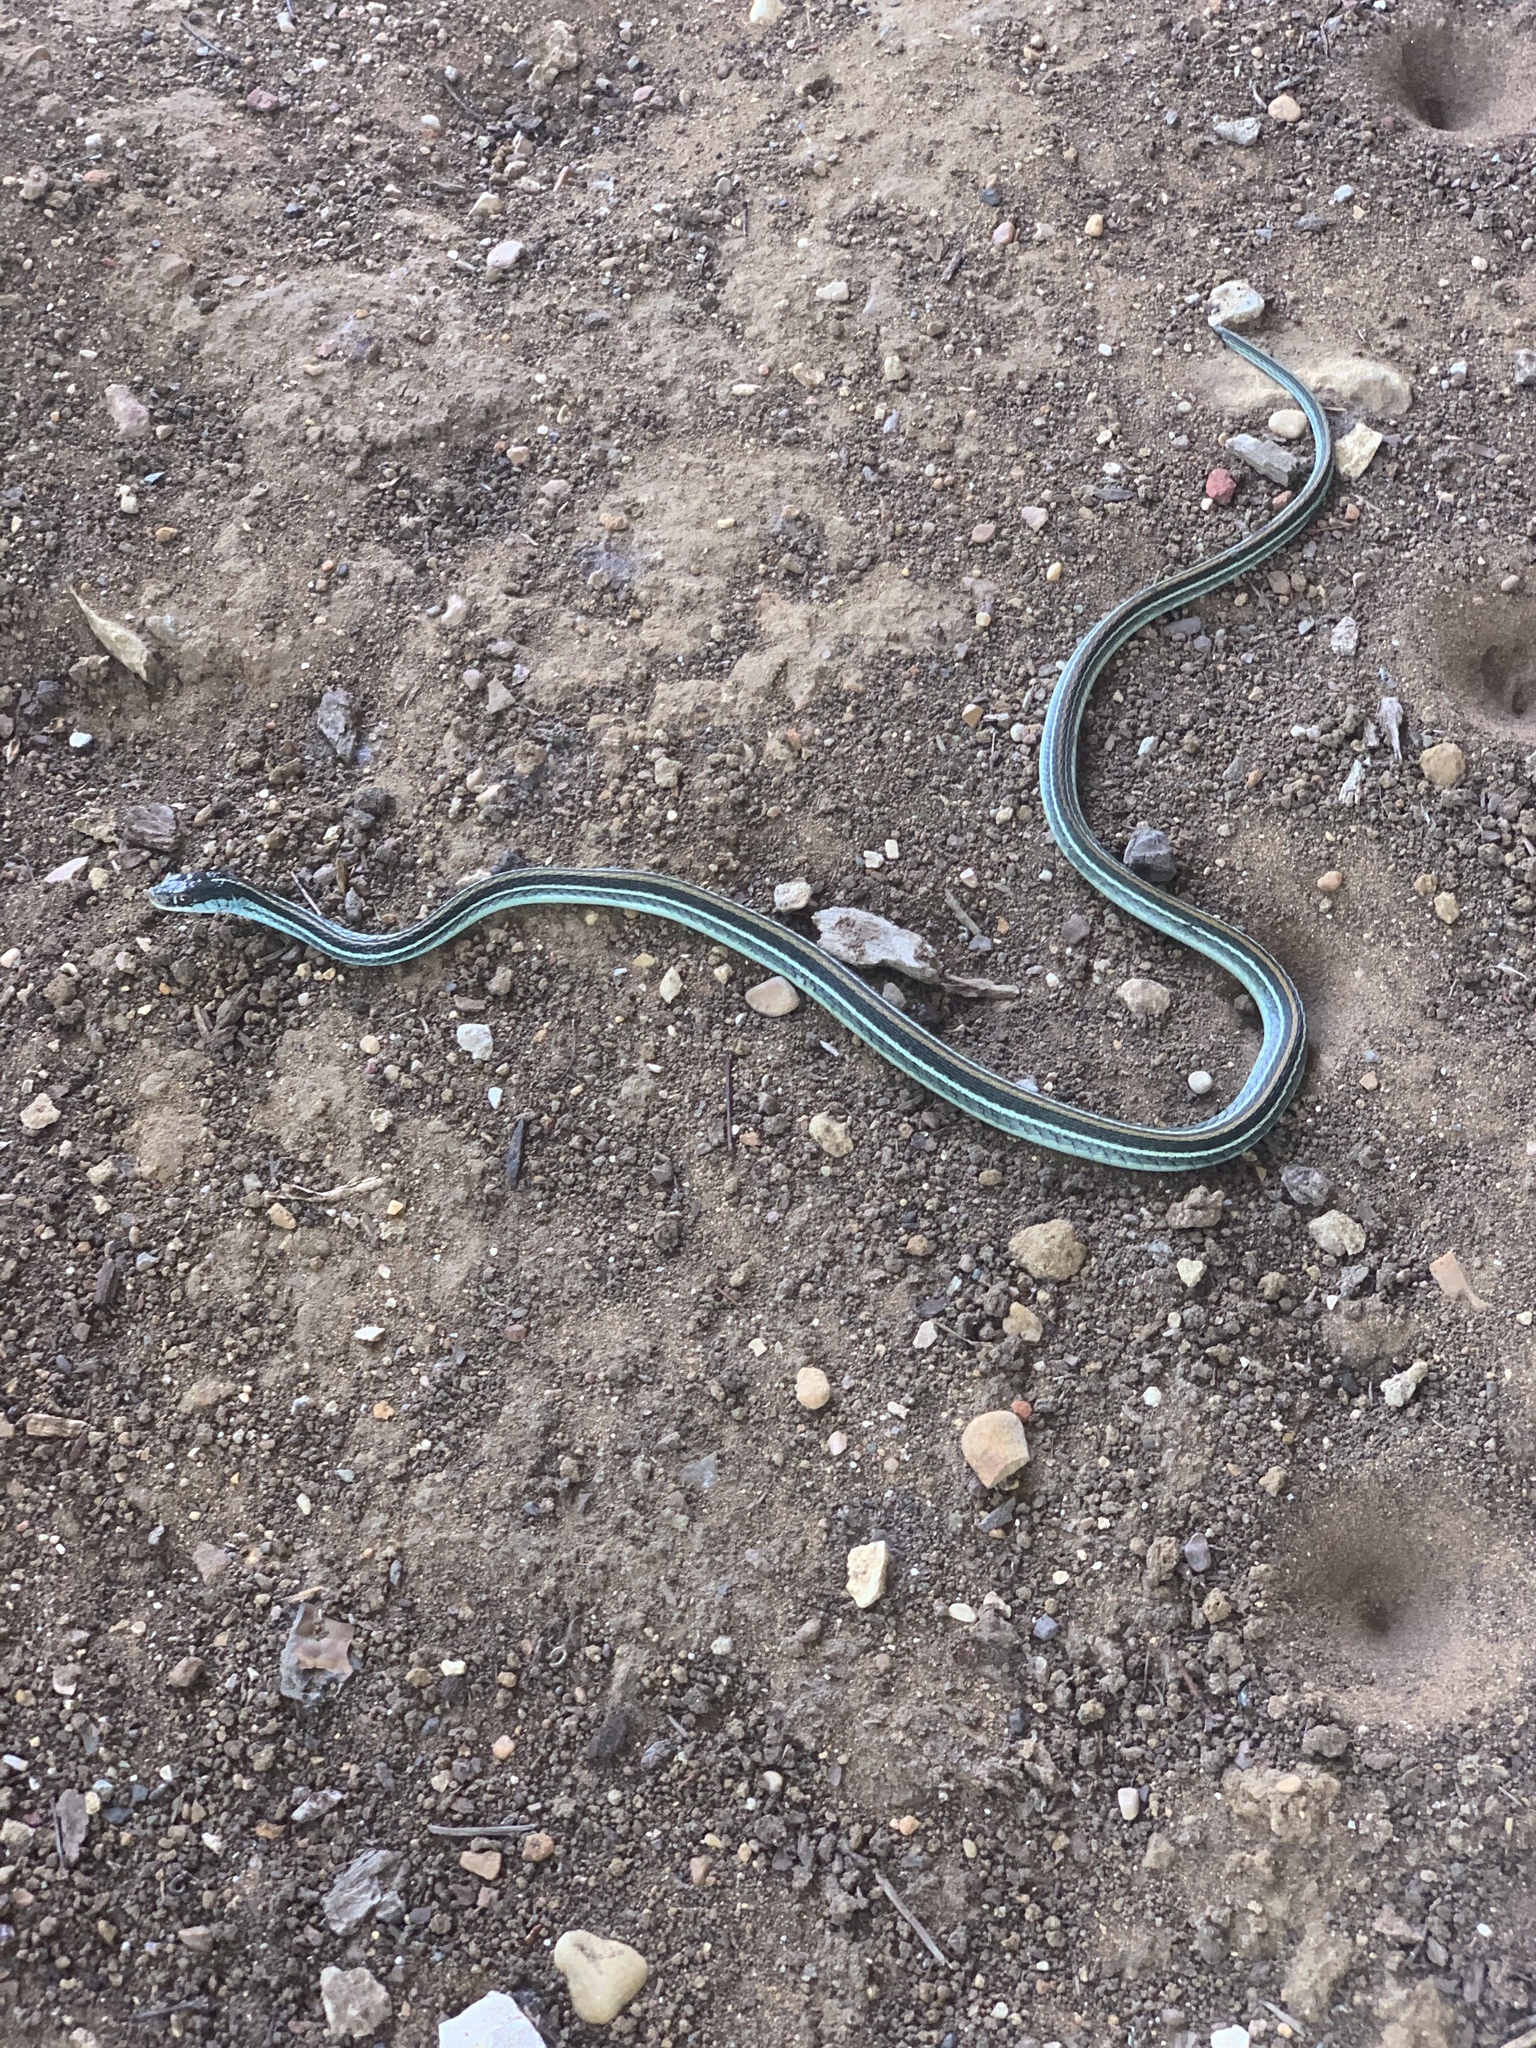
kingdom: Animalia
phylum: Chordata
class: Squamata
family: Colubridae
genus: Thamnophis
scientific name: Thamnophis proximus
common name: Western ribbon snake
